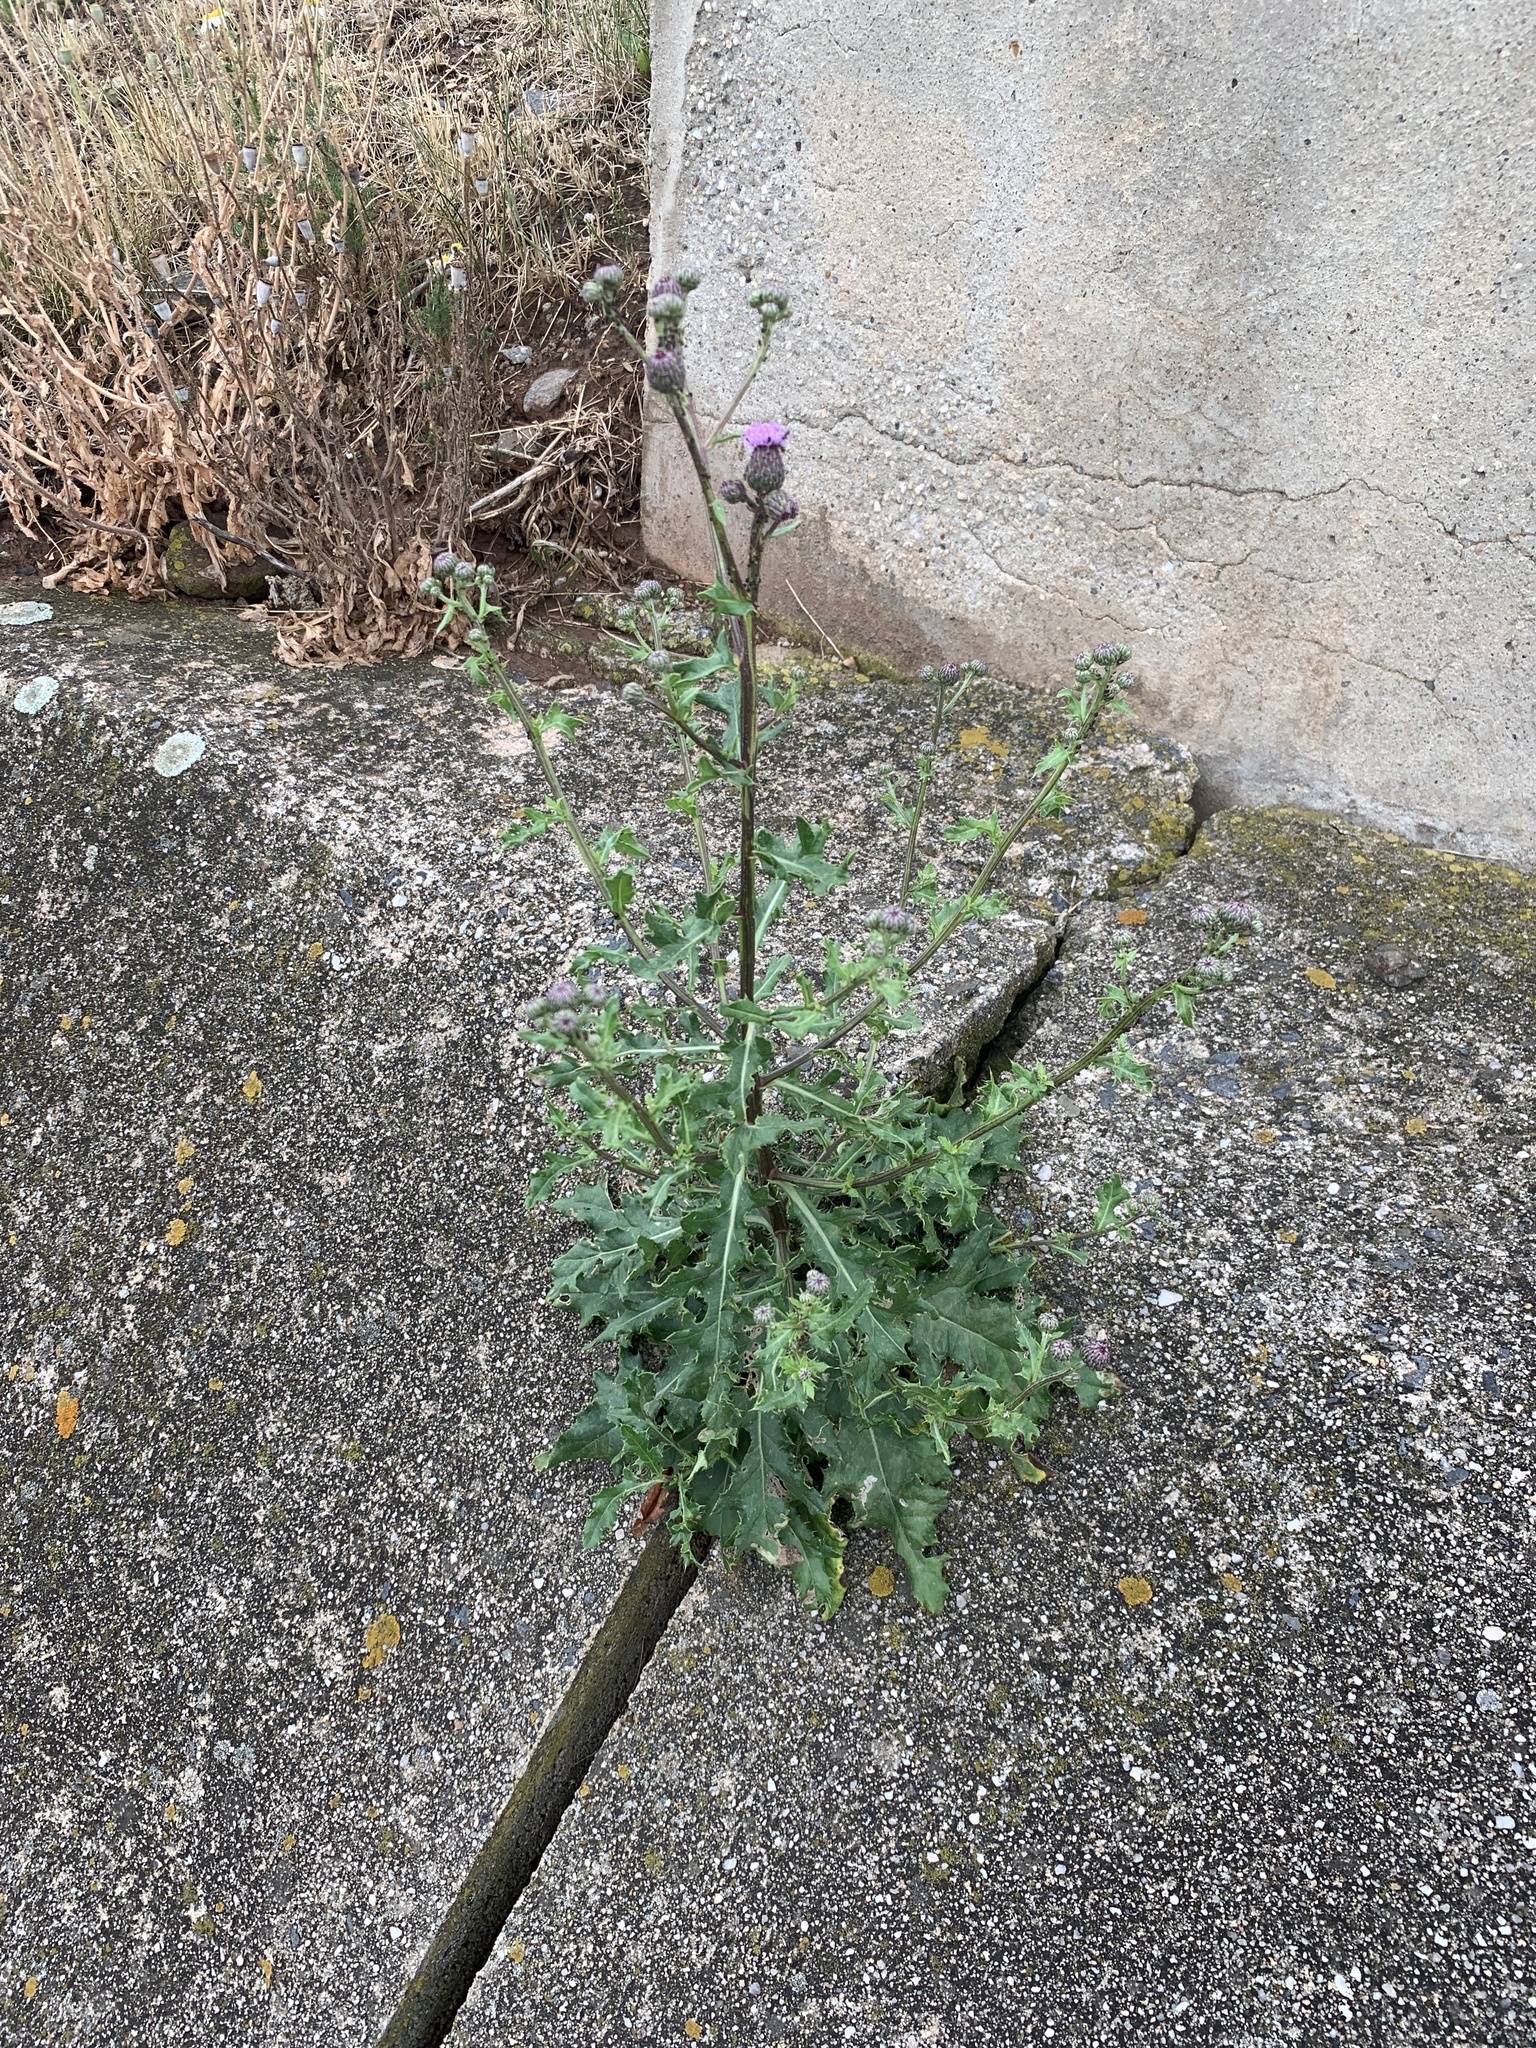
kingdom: Plantae
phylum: Tracheophyta
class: Magnoliopsida
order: Asterales
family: Asteraceae
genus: Cirsium
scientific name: Cirsium arvense
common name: Creeping thistle
